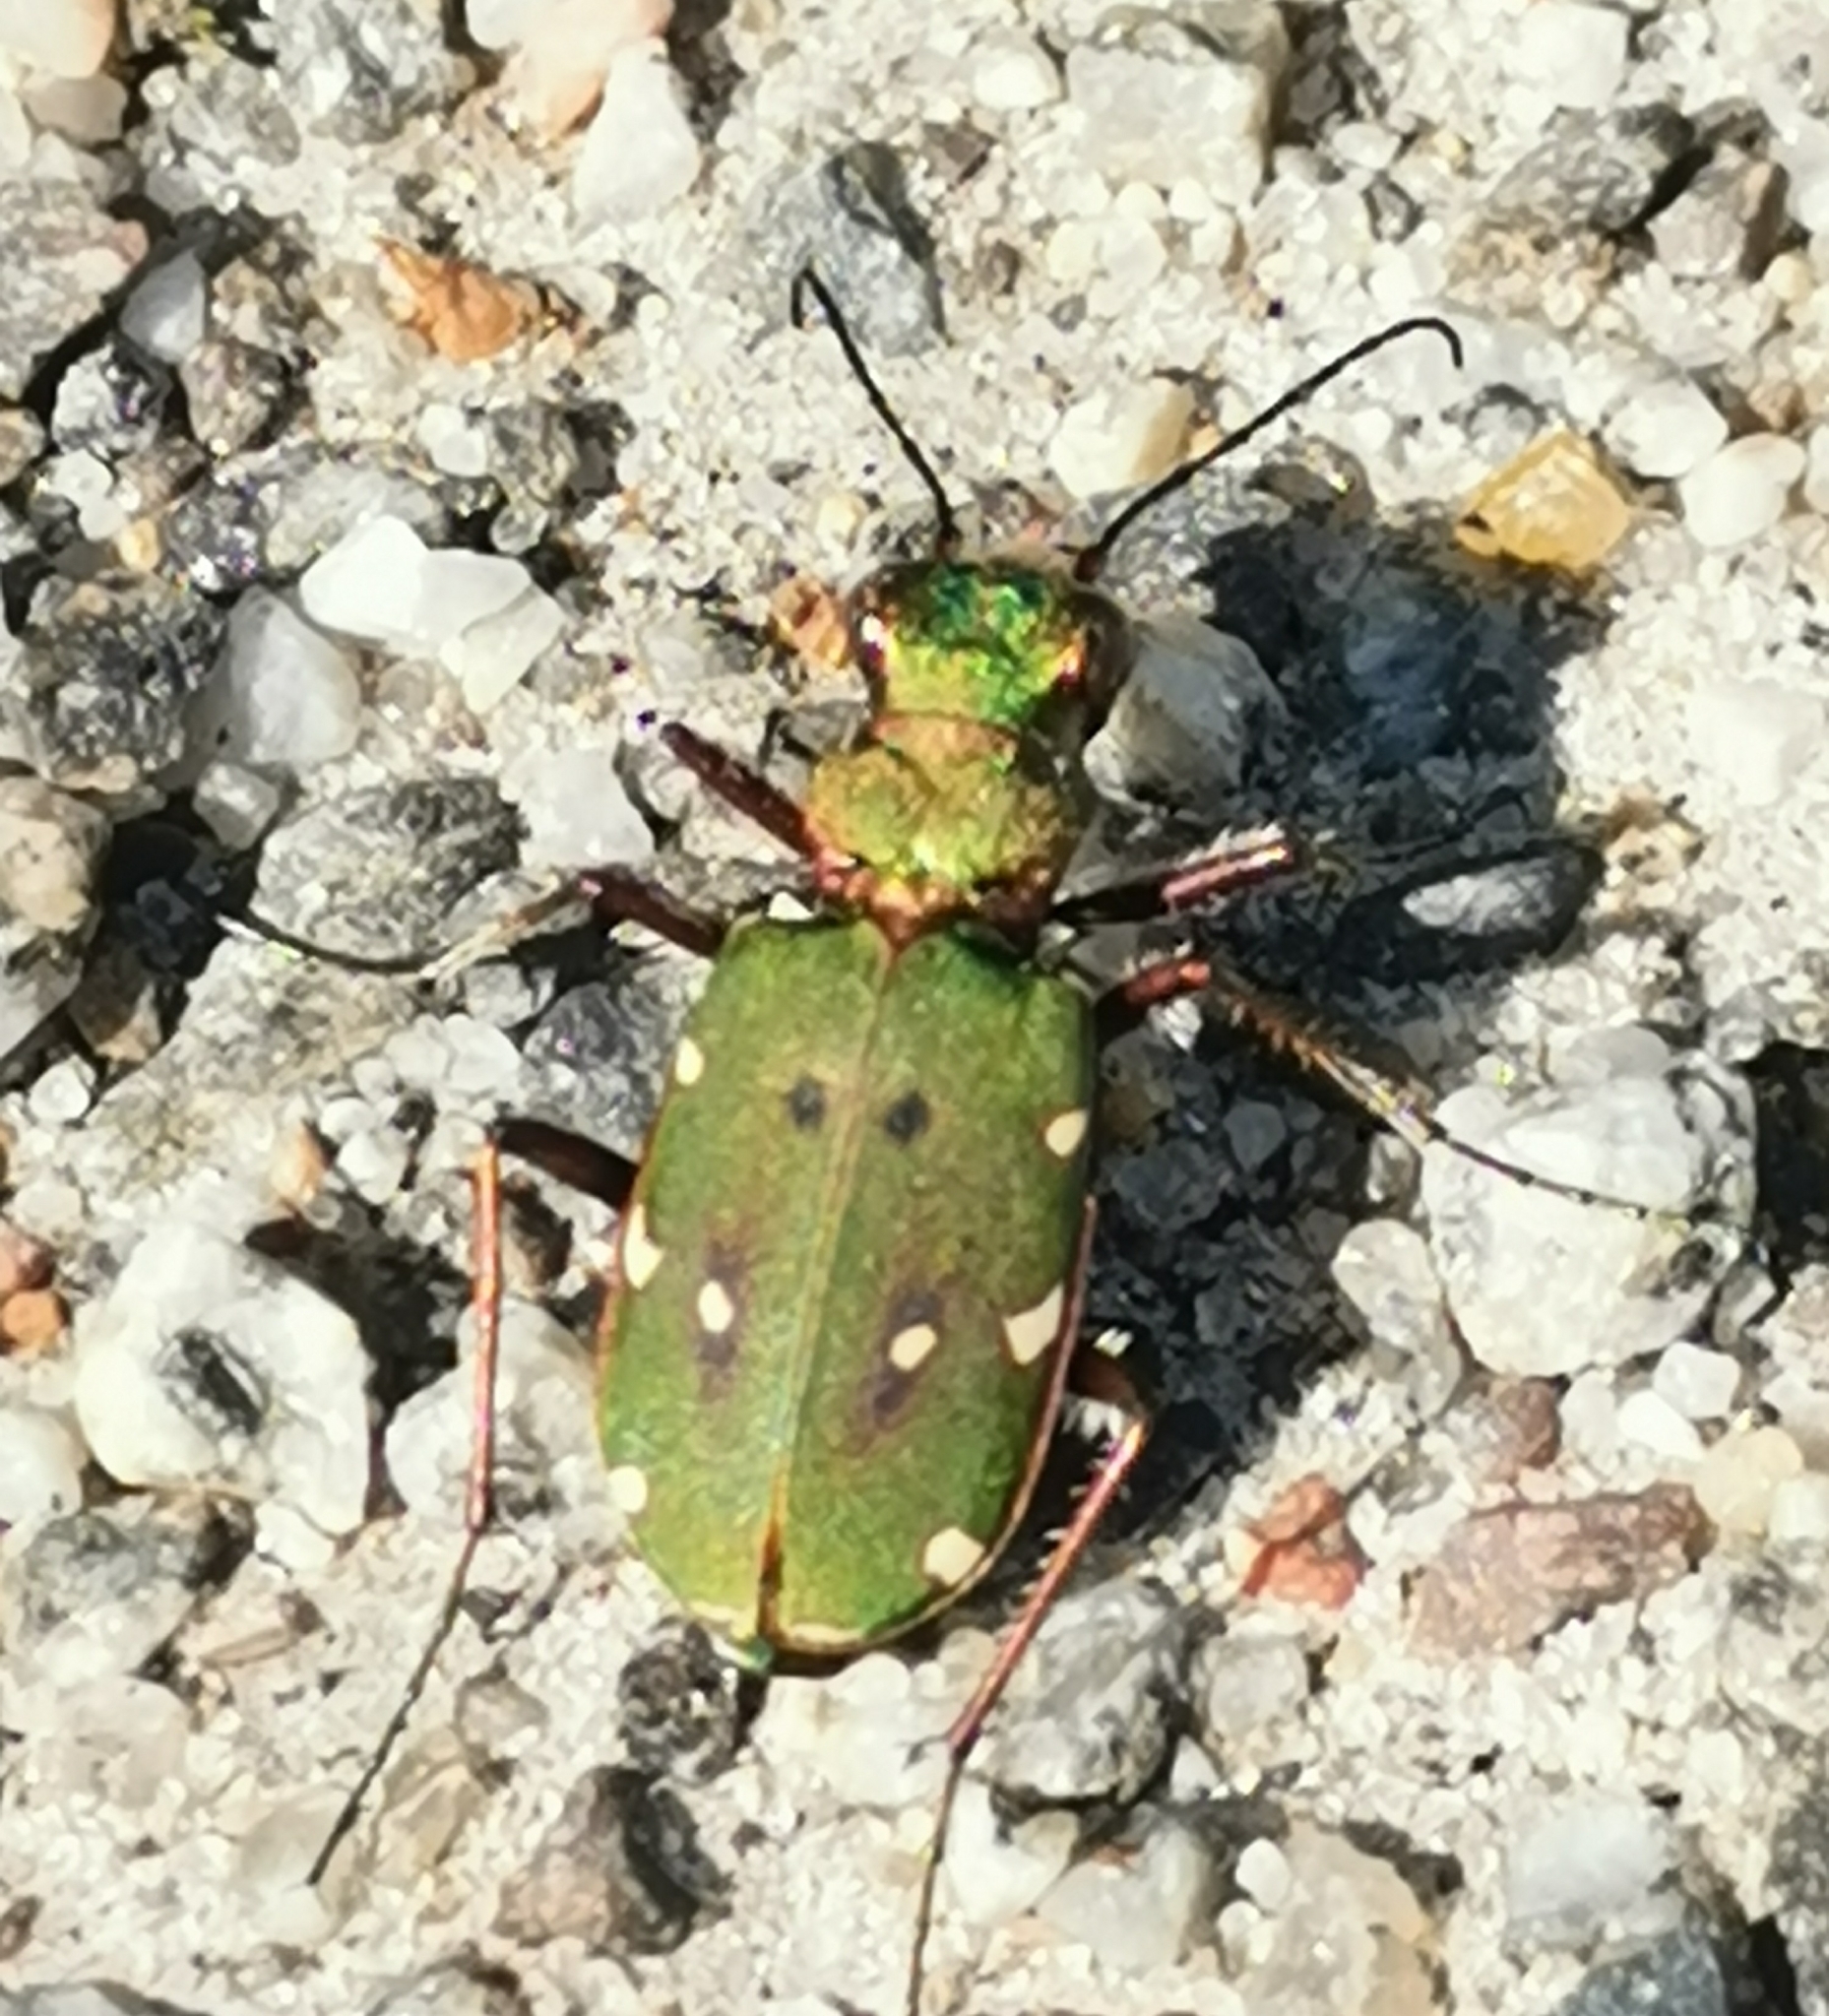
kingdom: Animalia
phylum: Arthropoda
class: Insecta
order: Coleoptera
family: Carabidae
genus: Cicindela
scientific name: Cicindela campestris
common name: Common tiger beetle
